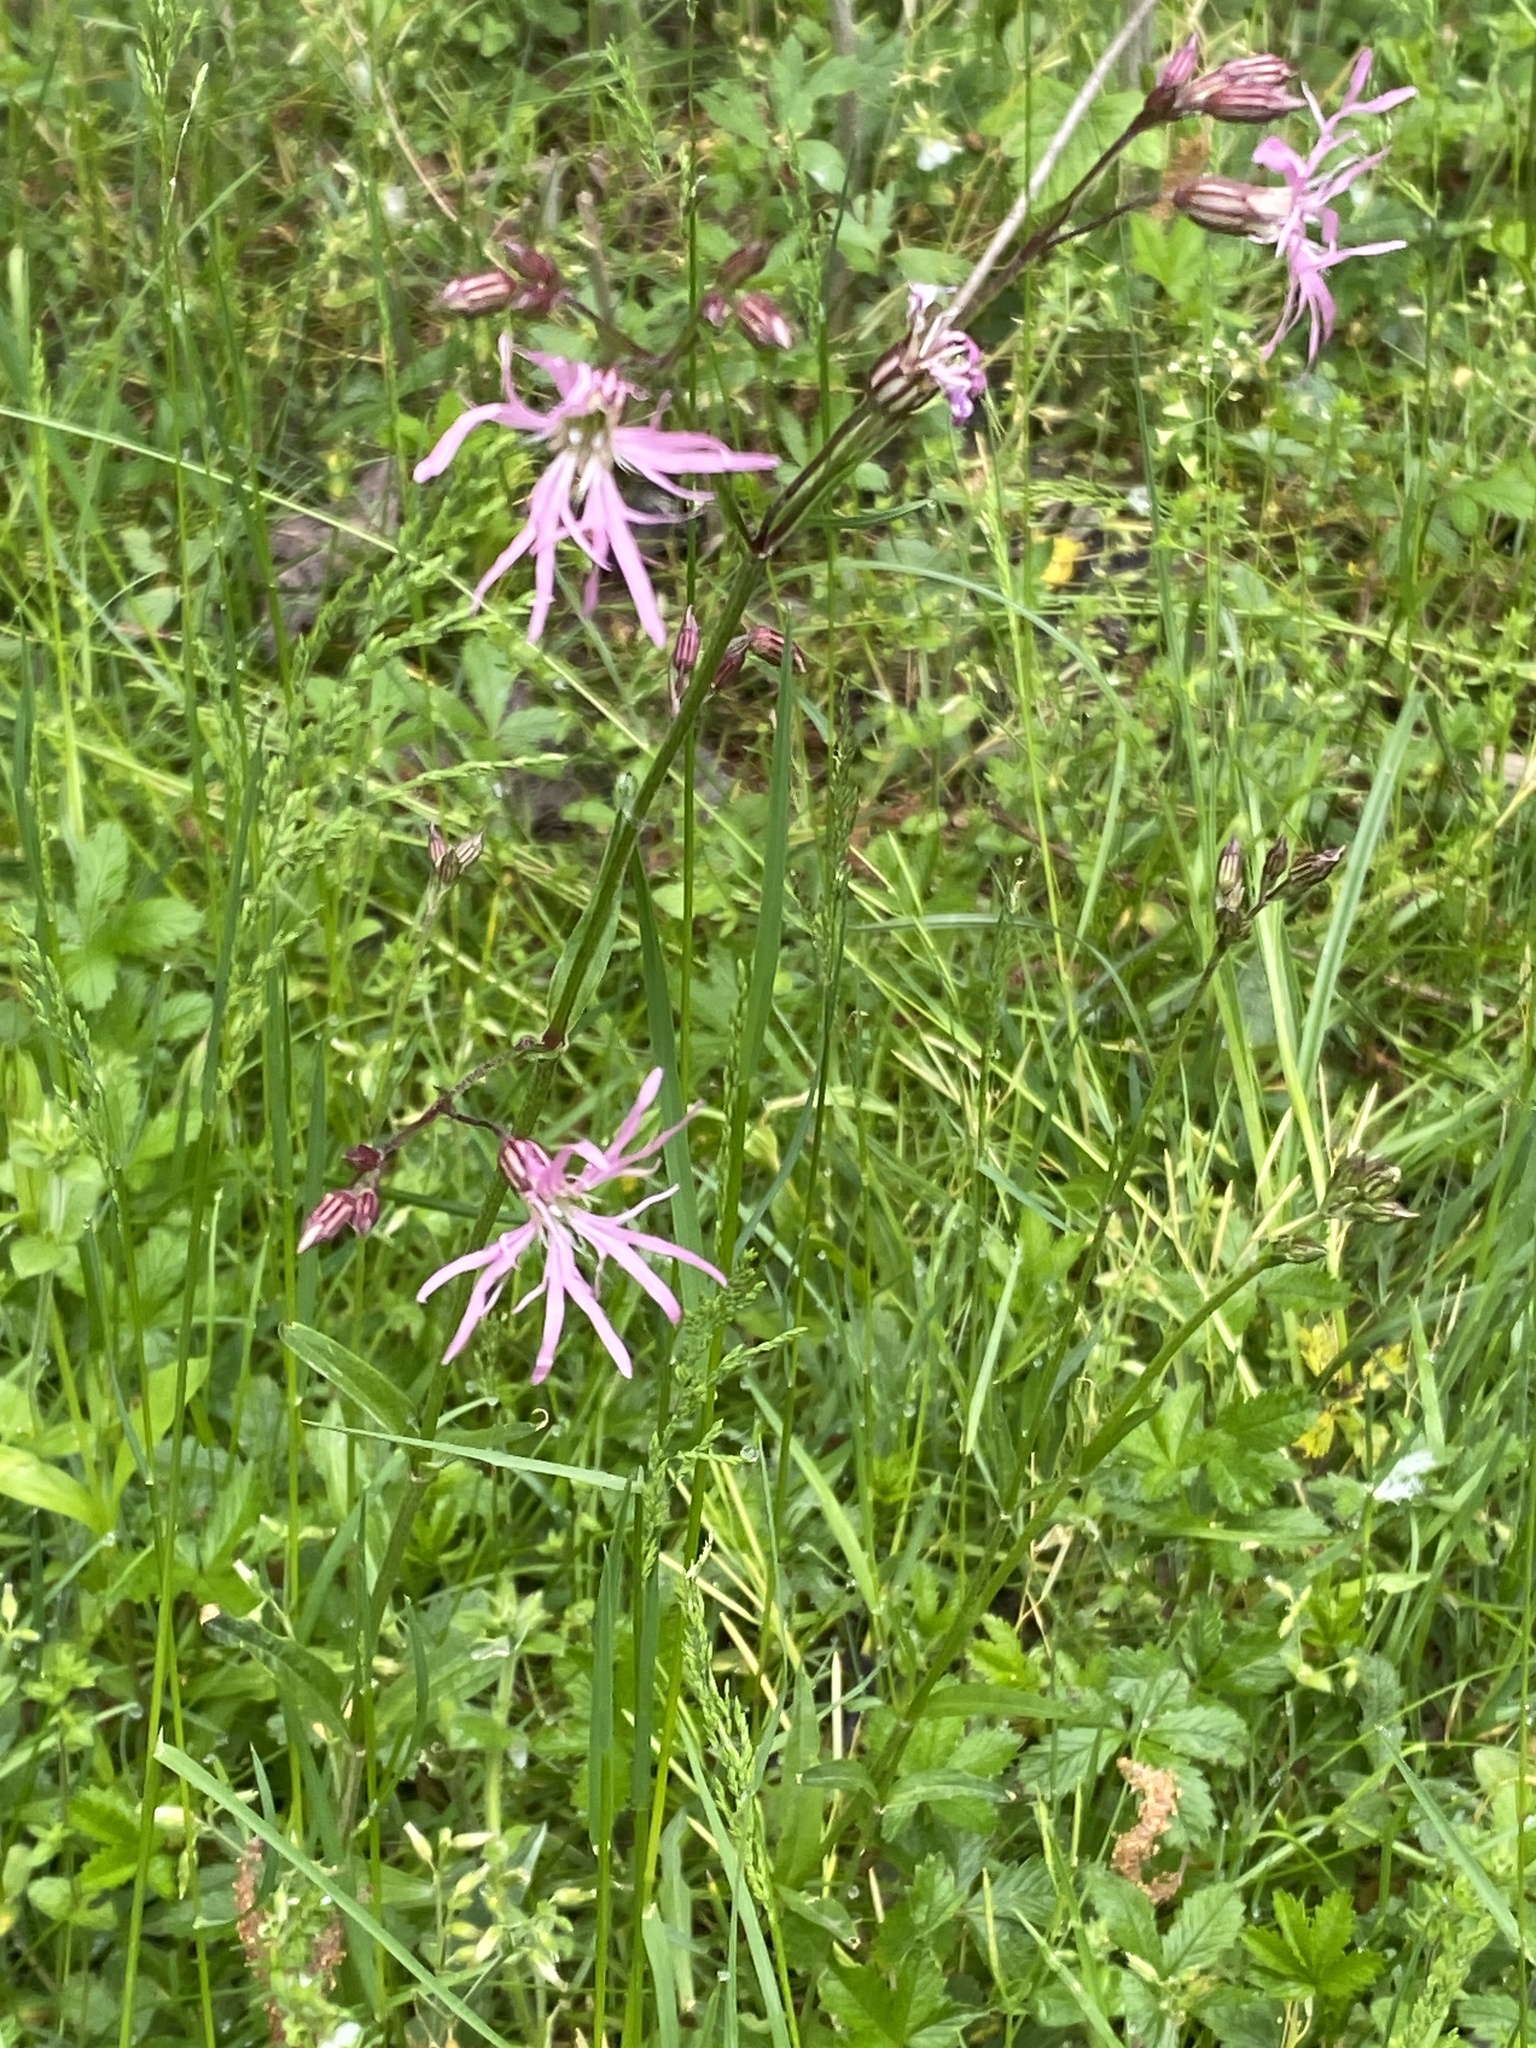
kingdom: Plantae
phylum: Tracheophyta
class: Magnoliopsida
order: Caryophyllales
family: Caryophyllaceae
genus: Silene
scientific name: Silene flos-cuculi
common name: Ragged-robin
